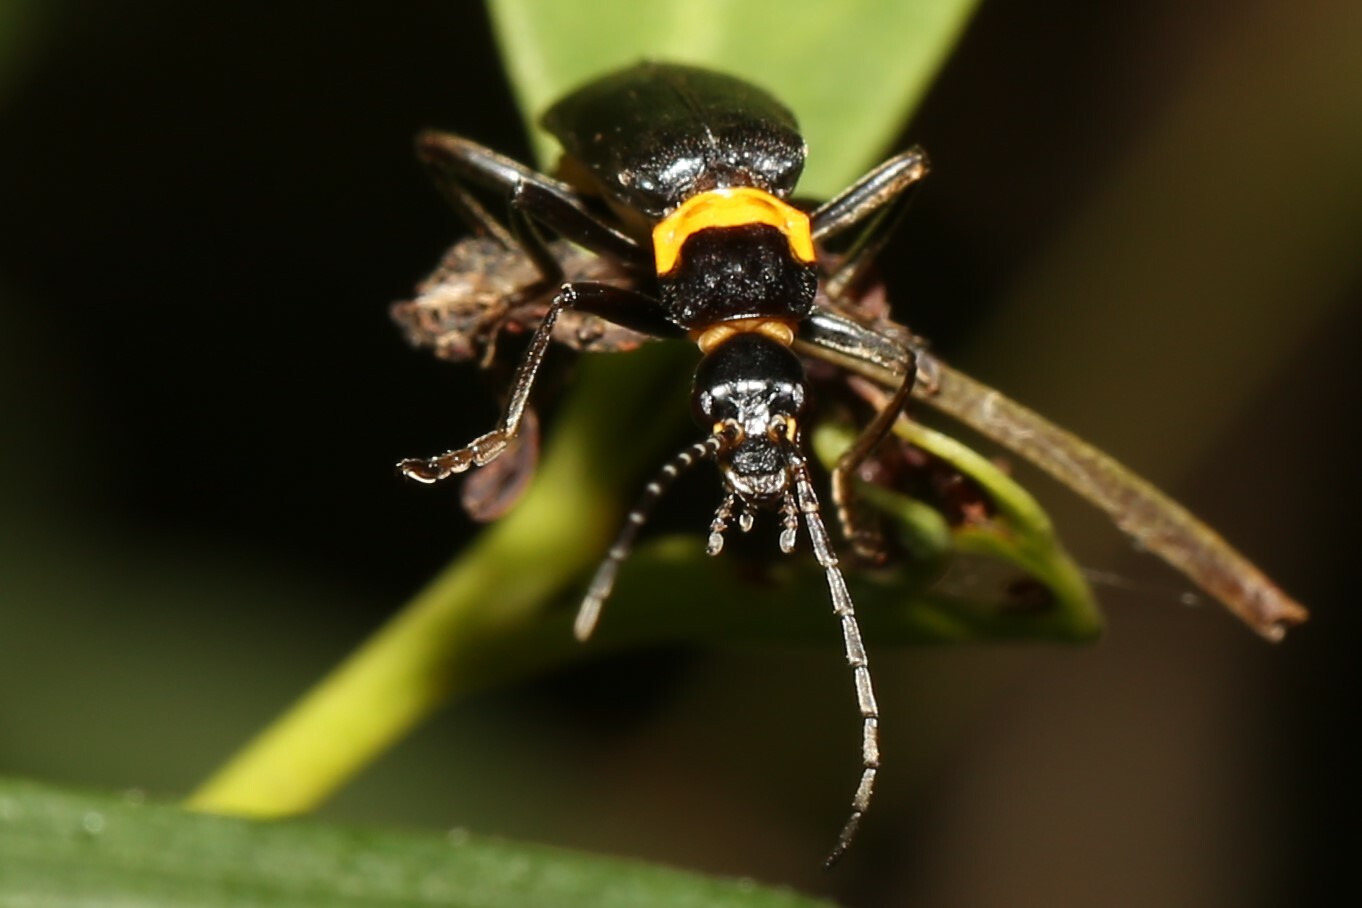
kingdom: Animalia
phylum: Arthropoda
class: Insecta
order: Coleoptera
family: Cantharidae
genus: Chauliognathus
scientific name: Chauliognathus
